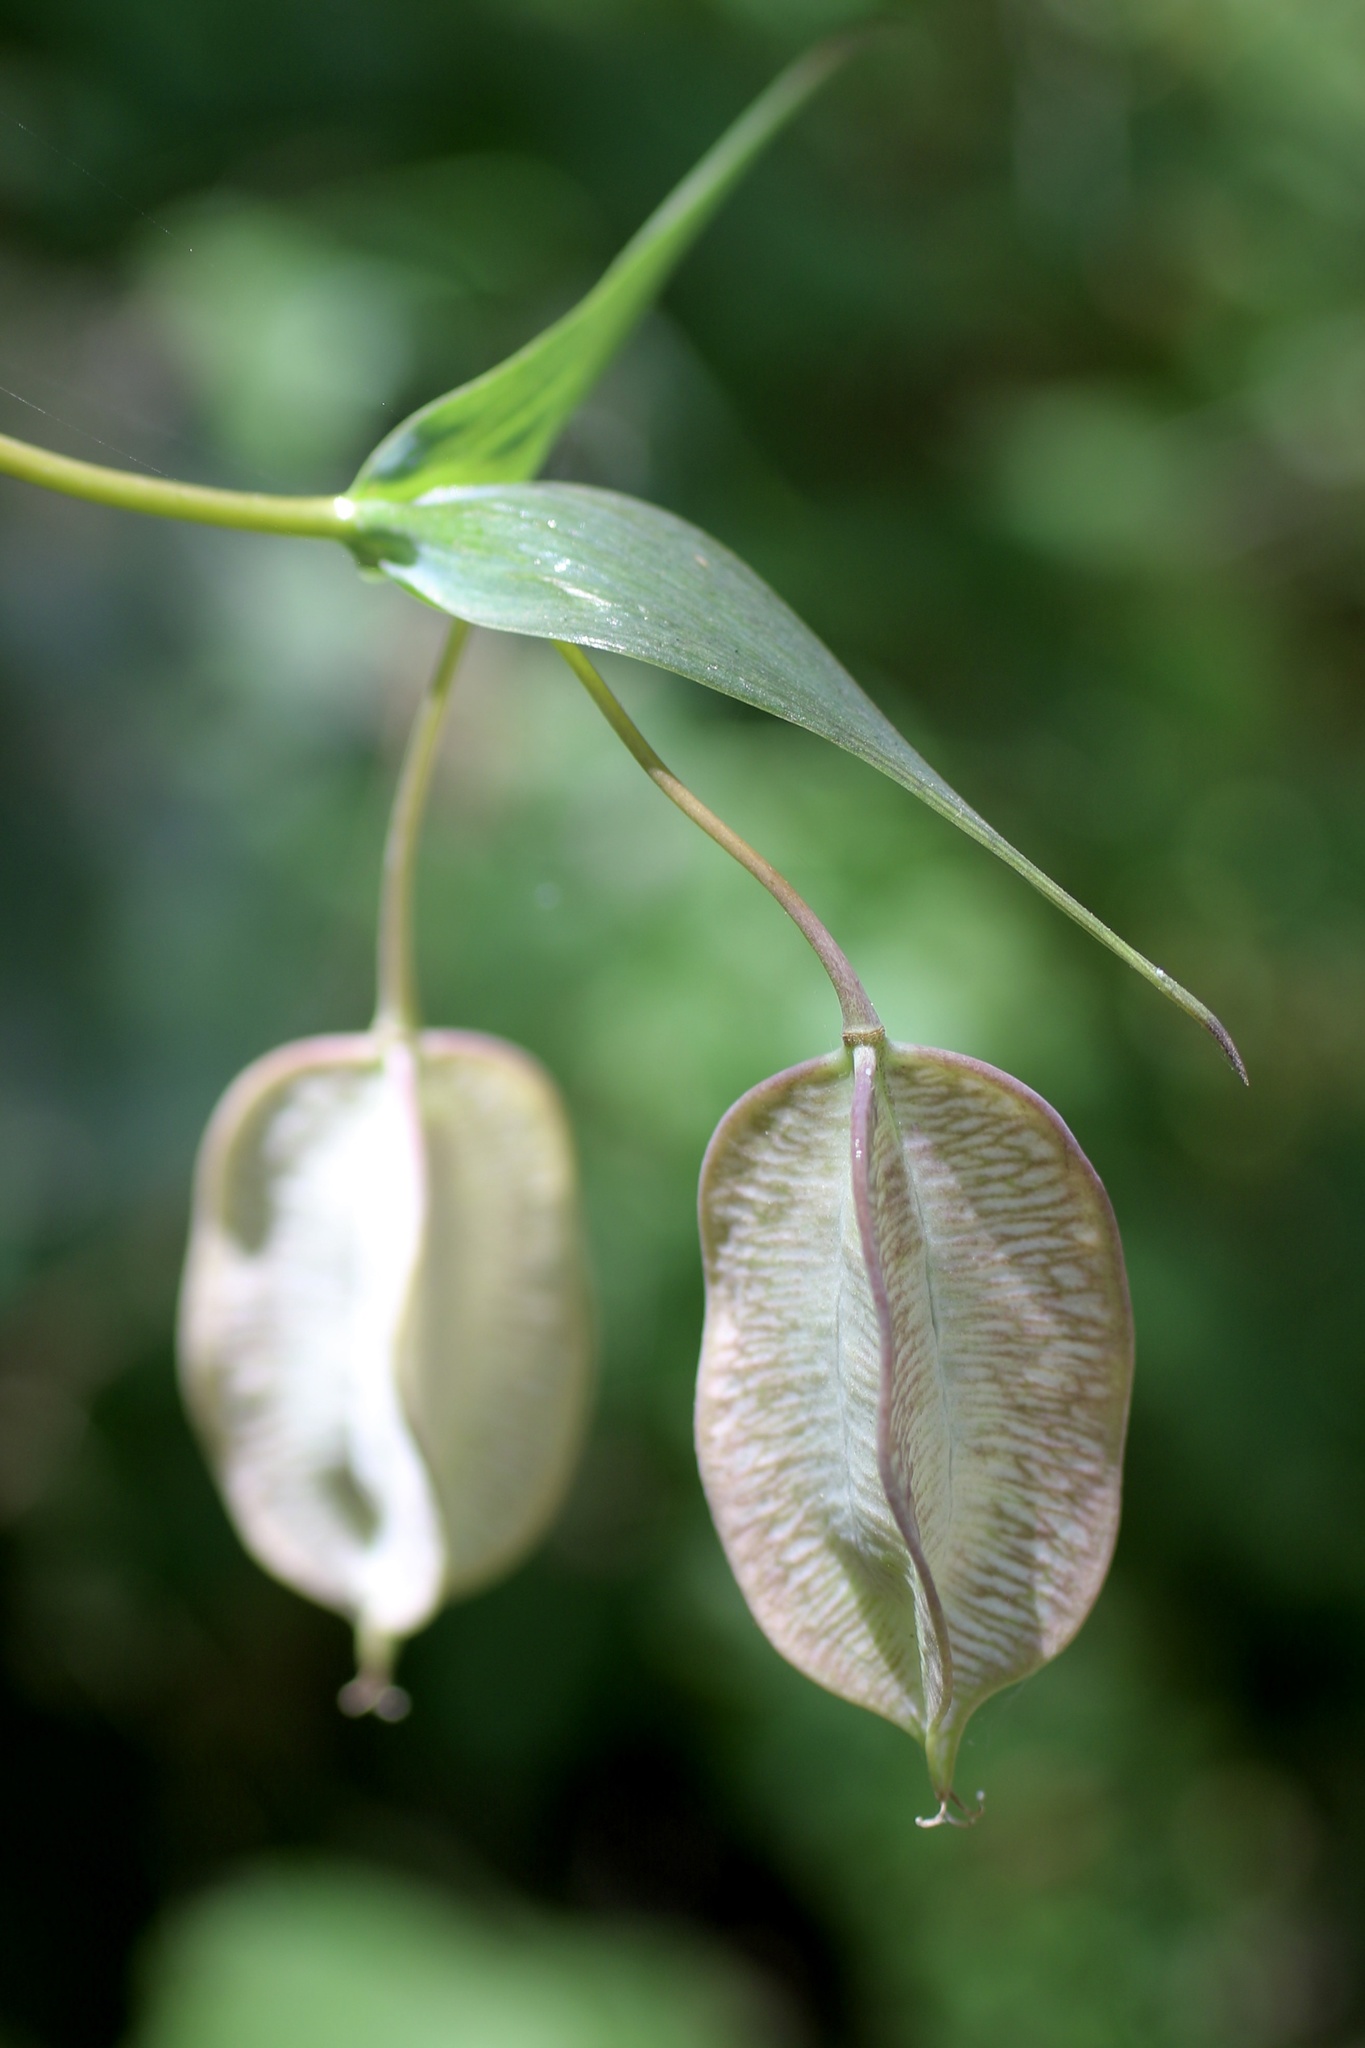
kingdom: Plantae
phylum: Tracheophyta
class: Liliopsida
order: Liliales
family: Liliaceae
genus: Calochortus
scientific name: Calochortus albus
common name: Fairy-lantern
